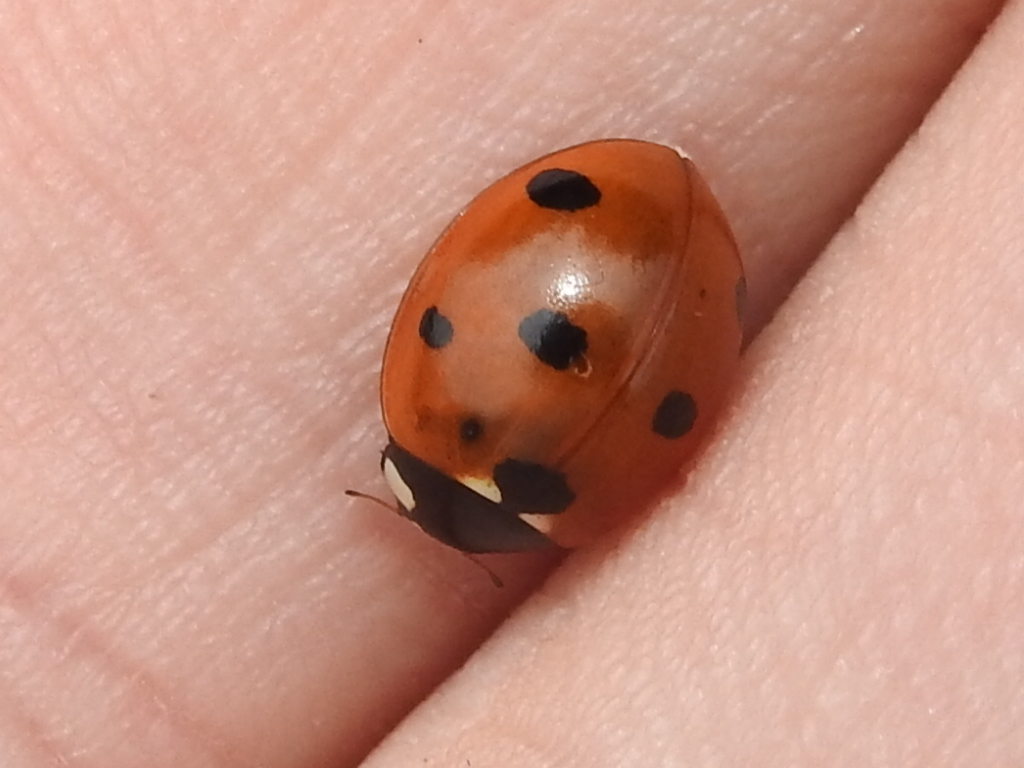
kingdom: Animalia
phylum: Arthropoda
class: Insecta
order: Coleoptera
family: Coccinellidae
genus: Coccinella
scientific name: Coccinella septempunctata
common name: Sevenspotted lady beetle
